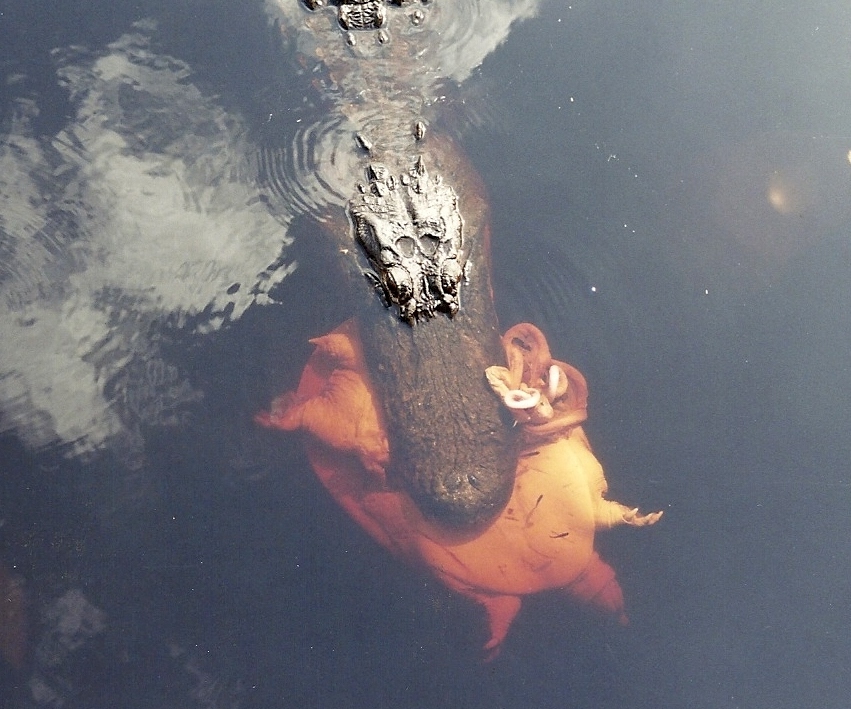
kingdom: Animalia
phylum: Chordata
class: Testudines
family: Trionychidae
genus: Apalone
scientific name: Apalone ferox
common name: Florida softshell turtle
